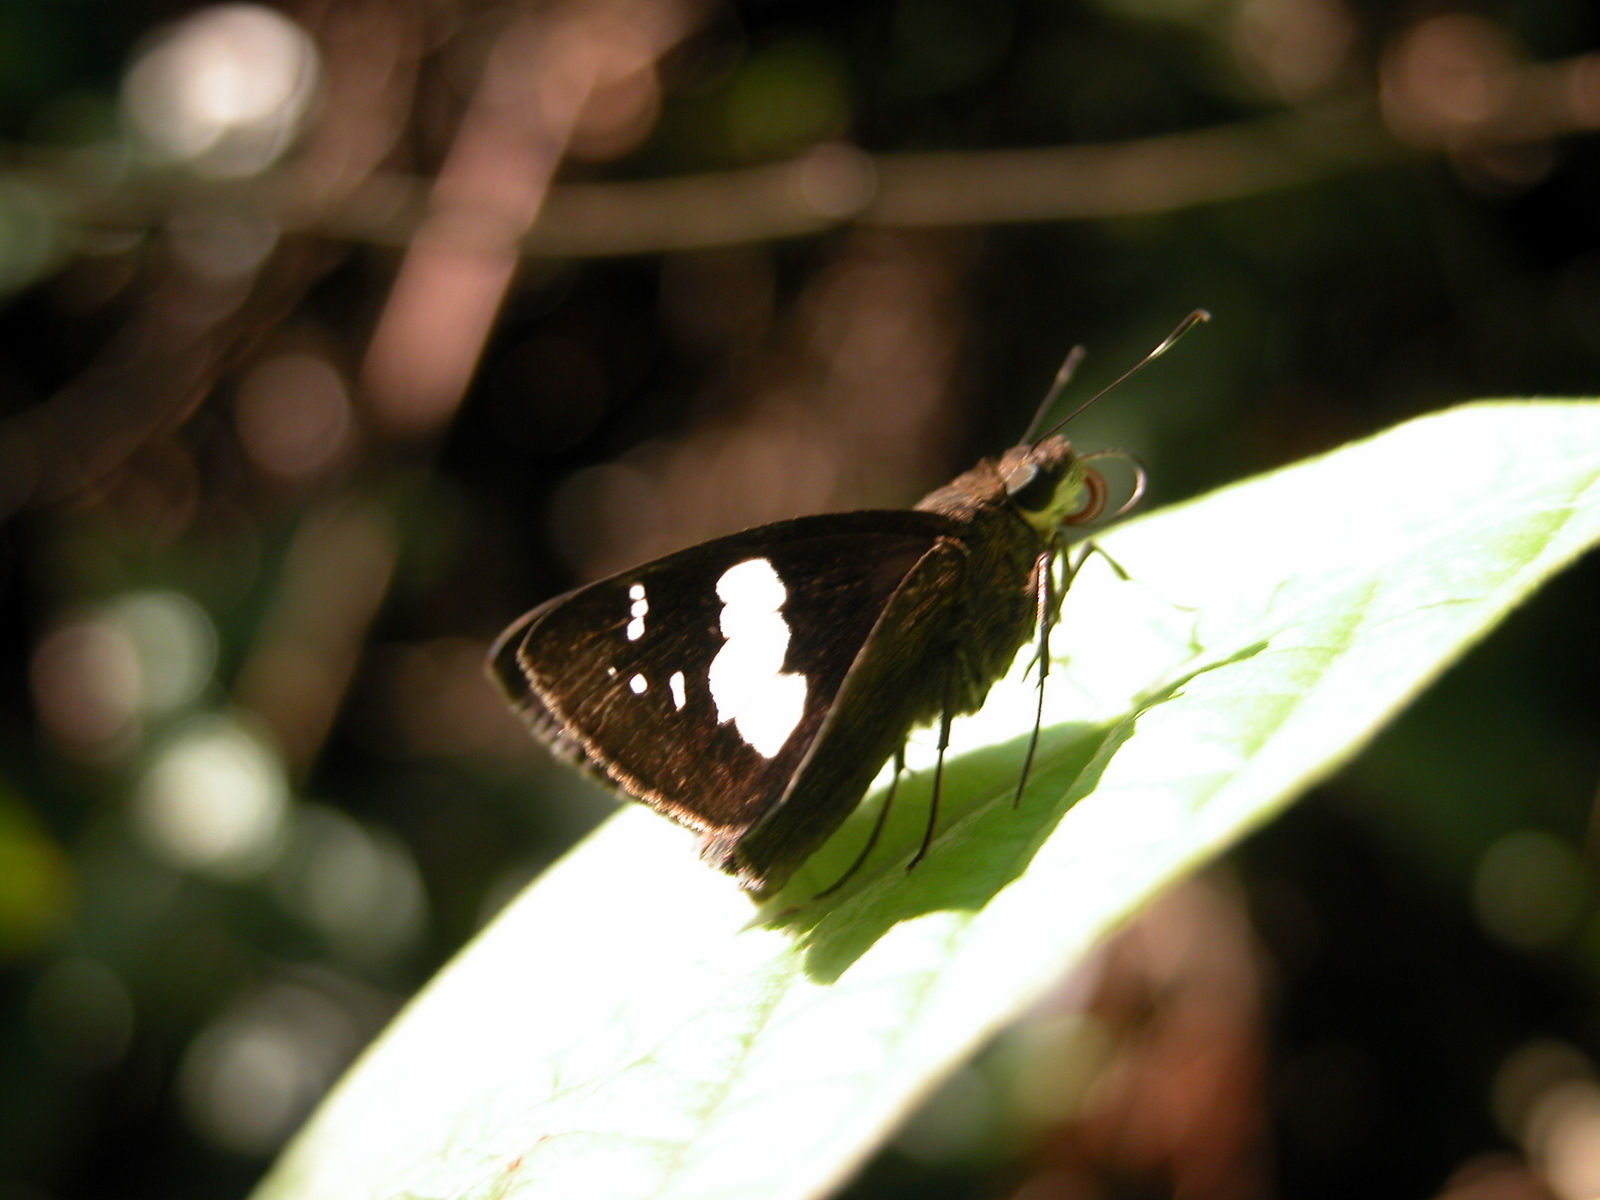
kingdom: Animalia
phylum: Arthropoda
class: Insecta
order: Lepidoptera
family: Hesperiidae
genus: Notocrypta
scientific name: Notocrypta curvifascia
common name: Restricted demon
